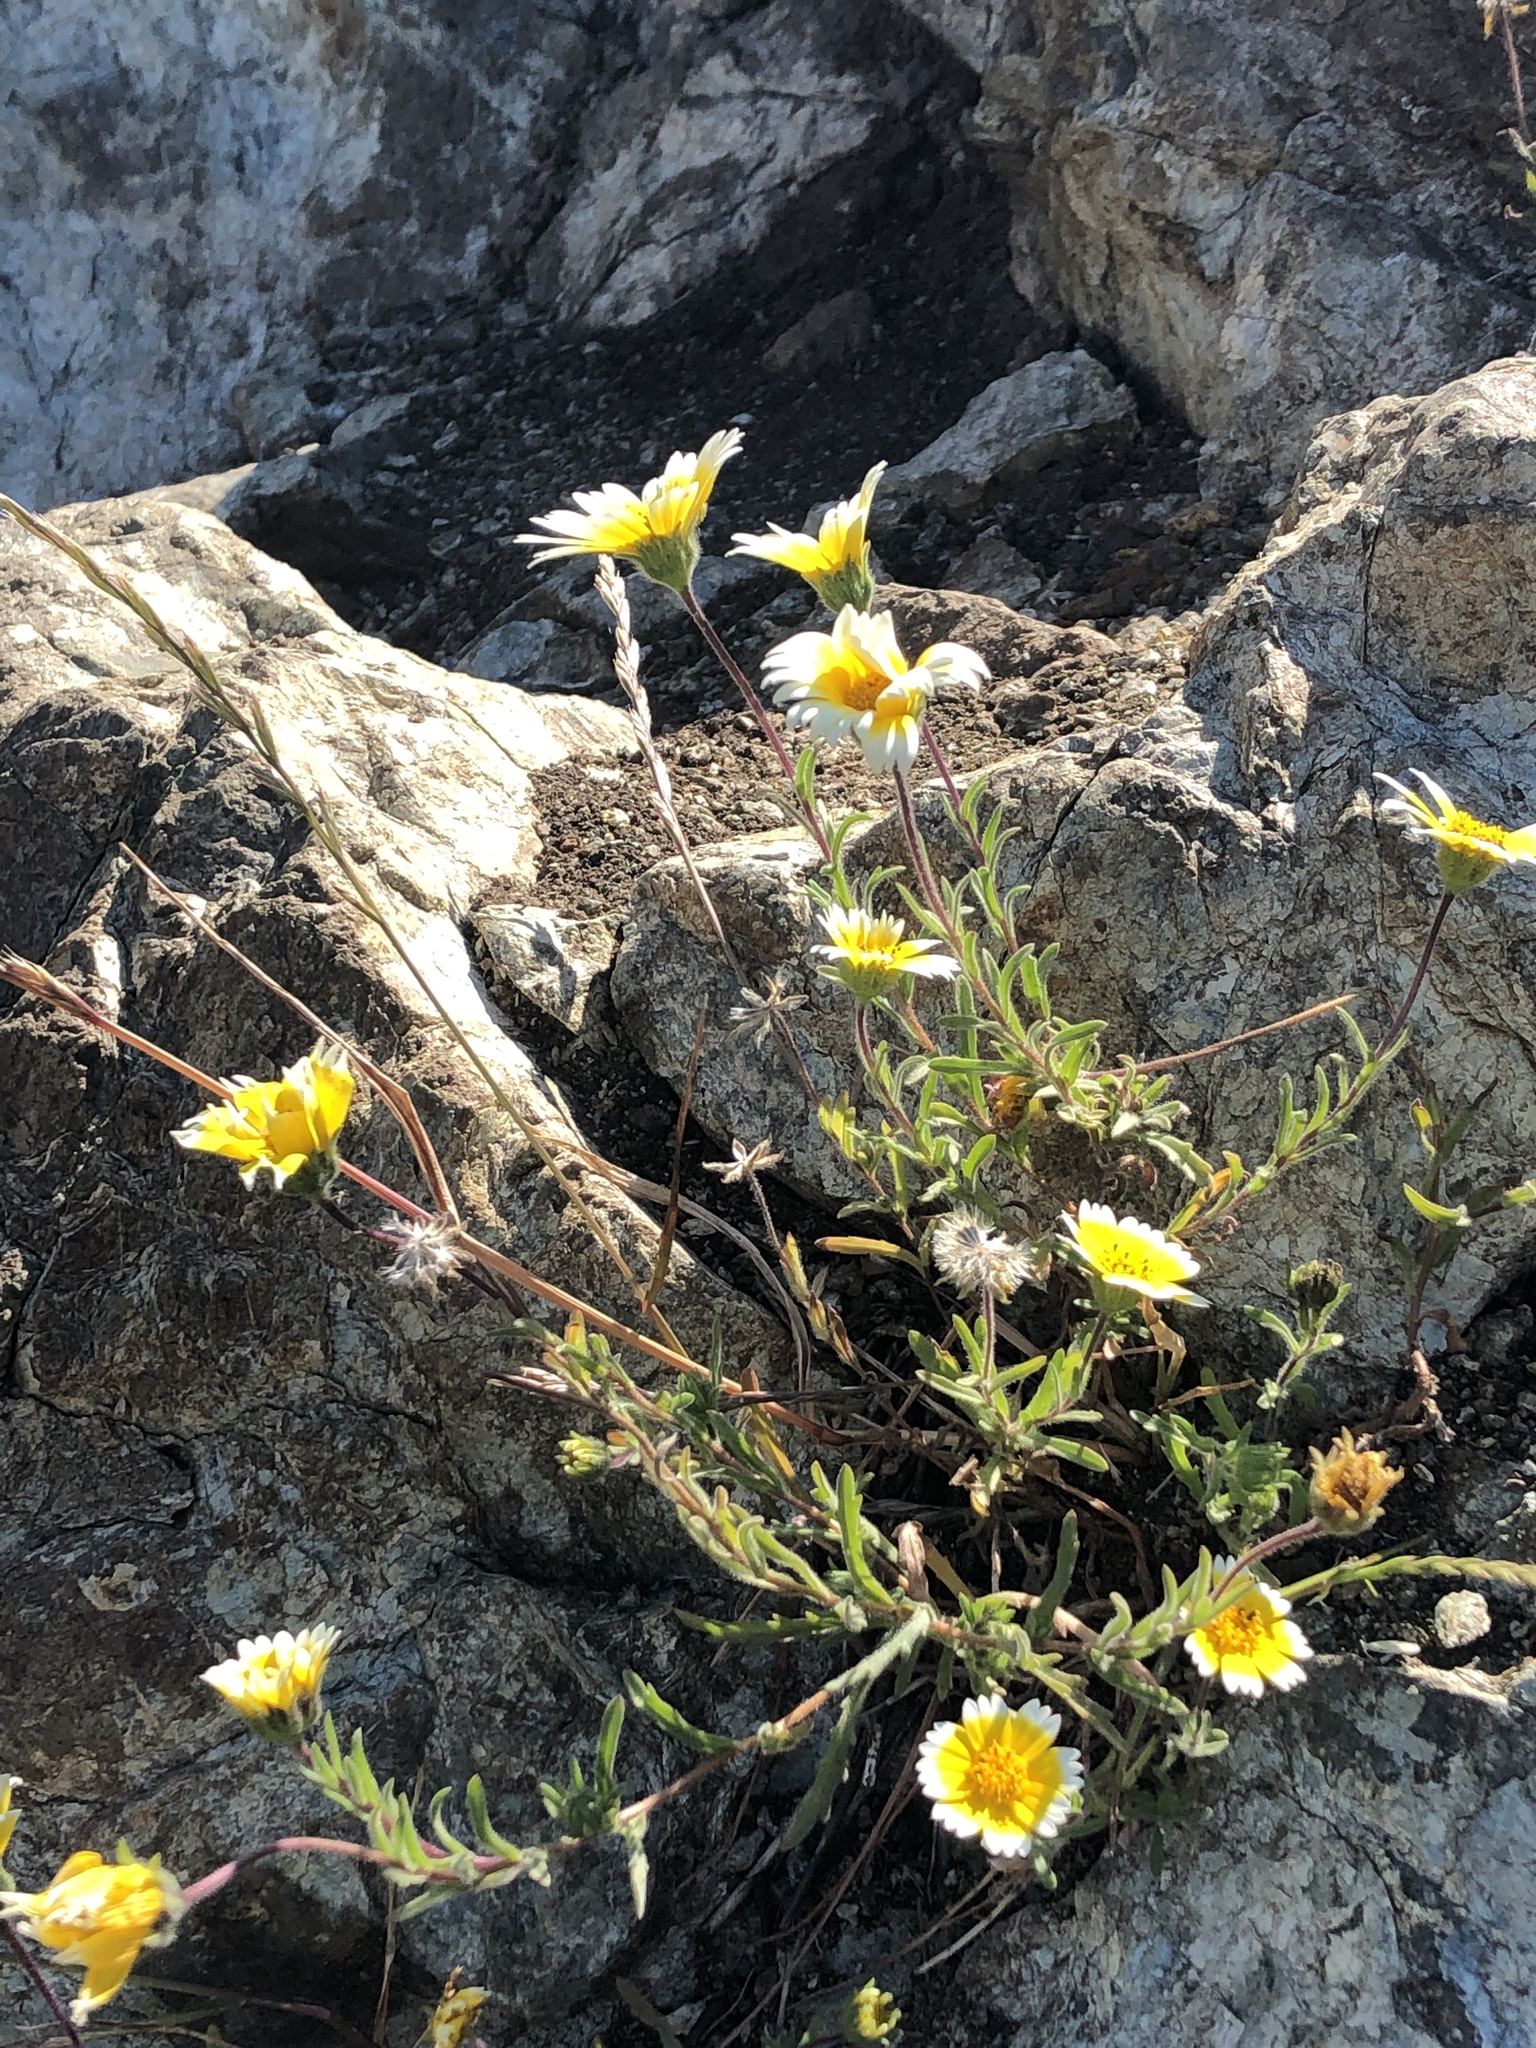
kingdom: Plantae
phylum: Tracheophyta
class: Magnoliopsida
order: Asterales
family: Asteraceae
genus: Layia
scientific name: Layia platyglossa
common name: Tidy-tips
